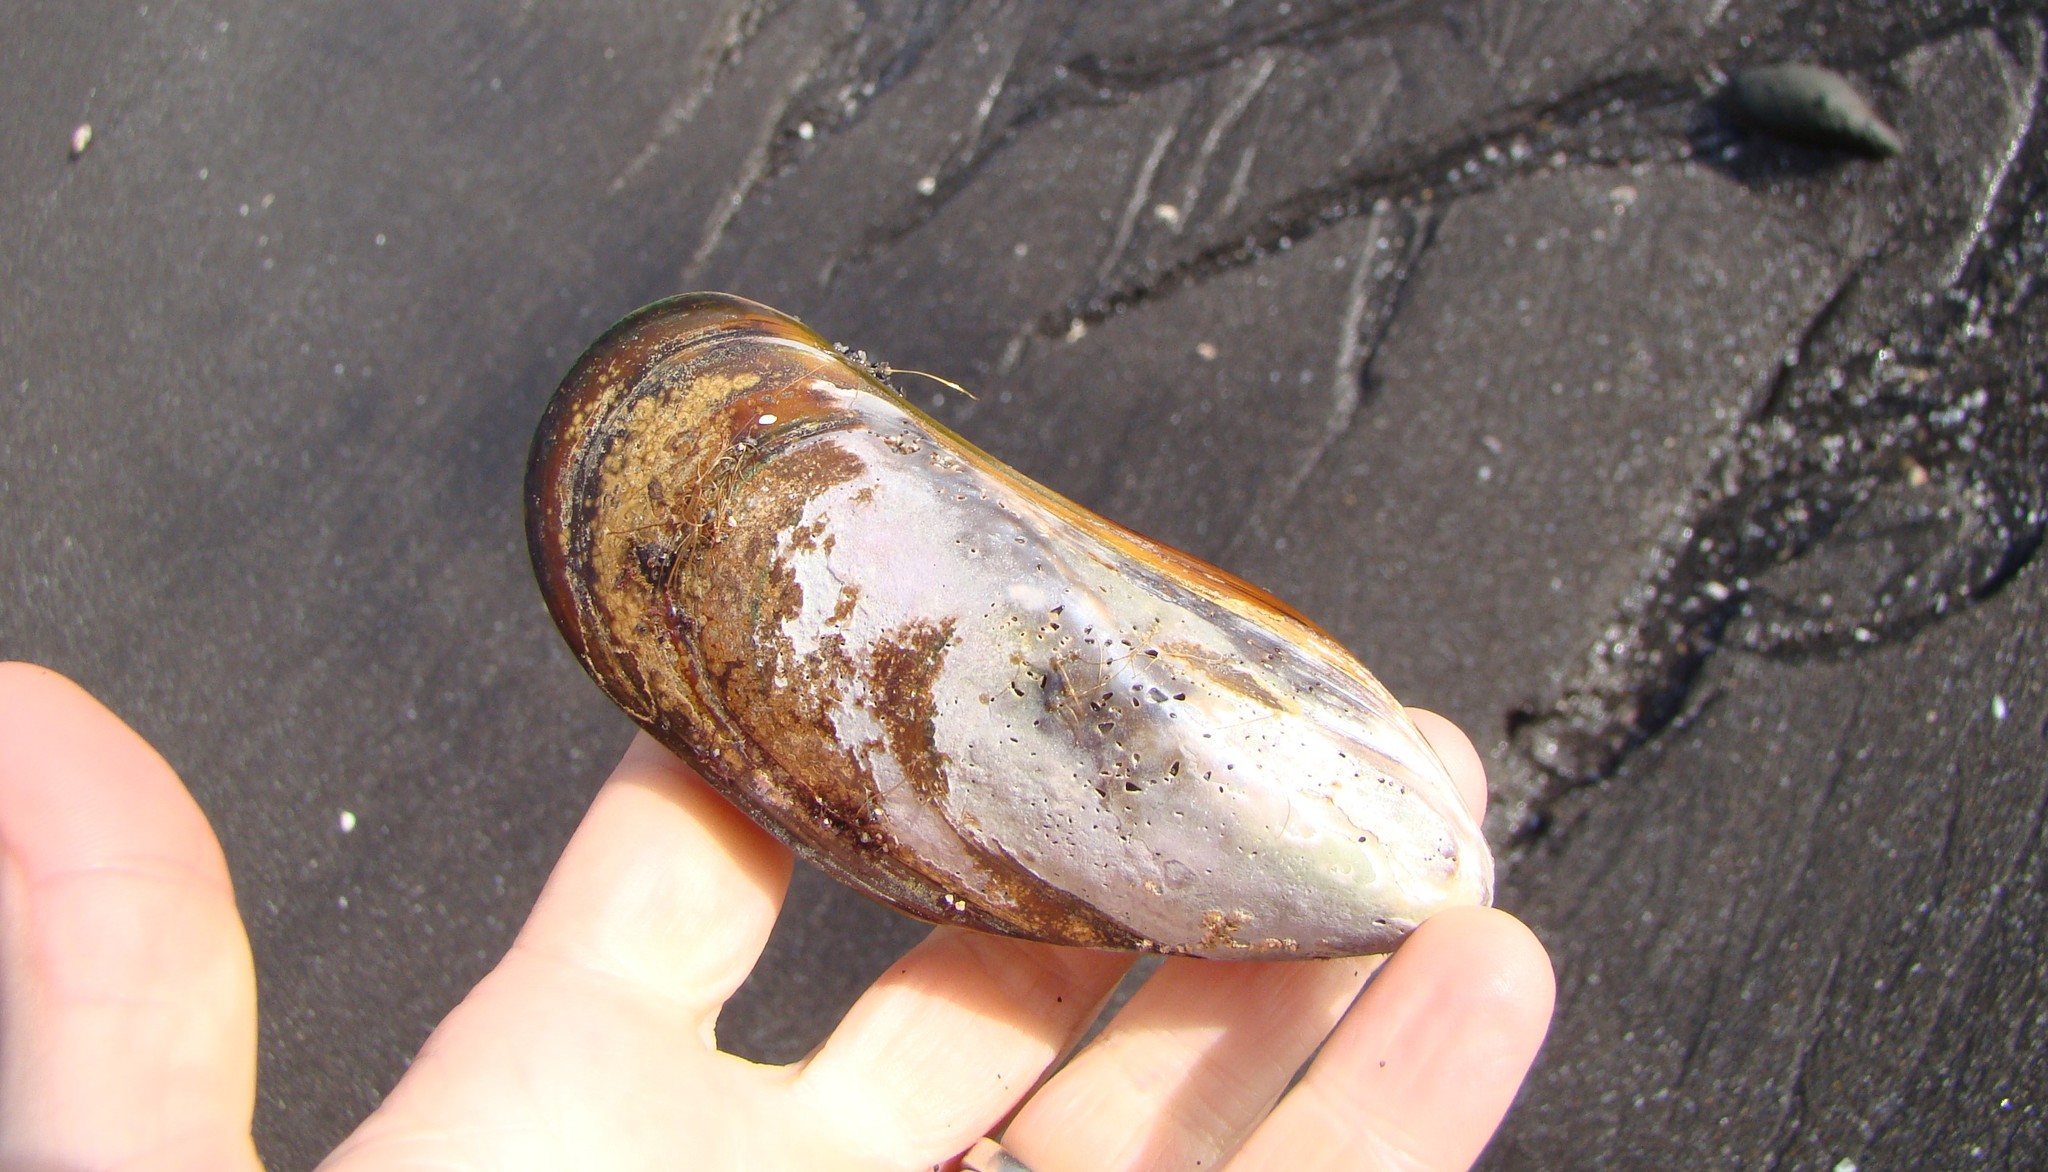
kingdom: Animalia
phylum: Mollusca
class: Bivalvia
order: Mytilida
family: Mytilidae
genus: Perna
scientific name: Perna canaliculus
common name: New zealand greenshelltm
